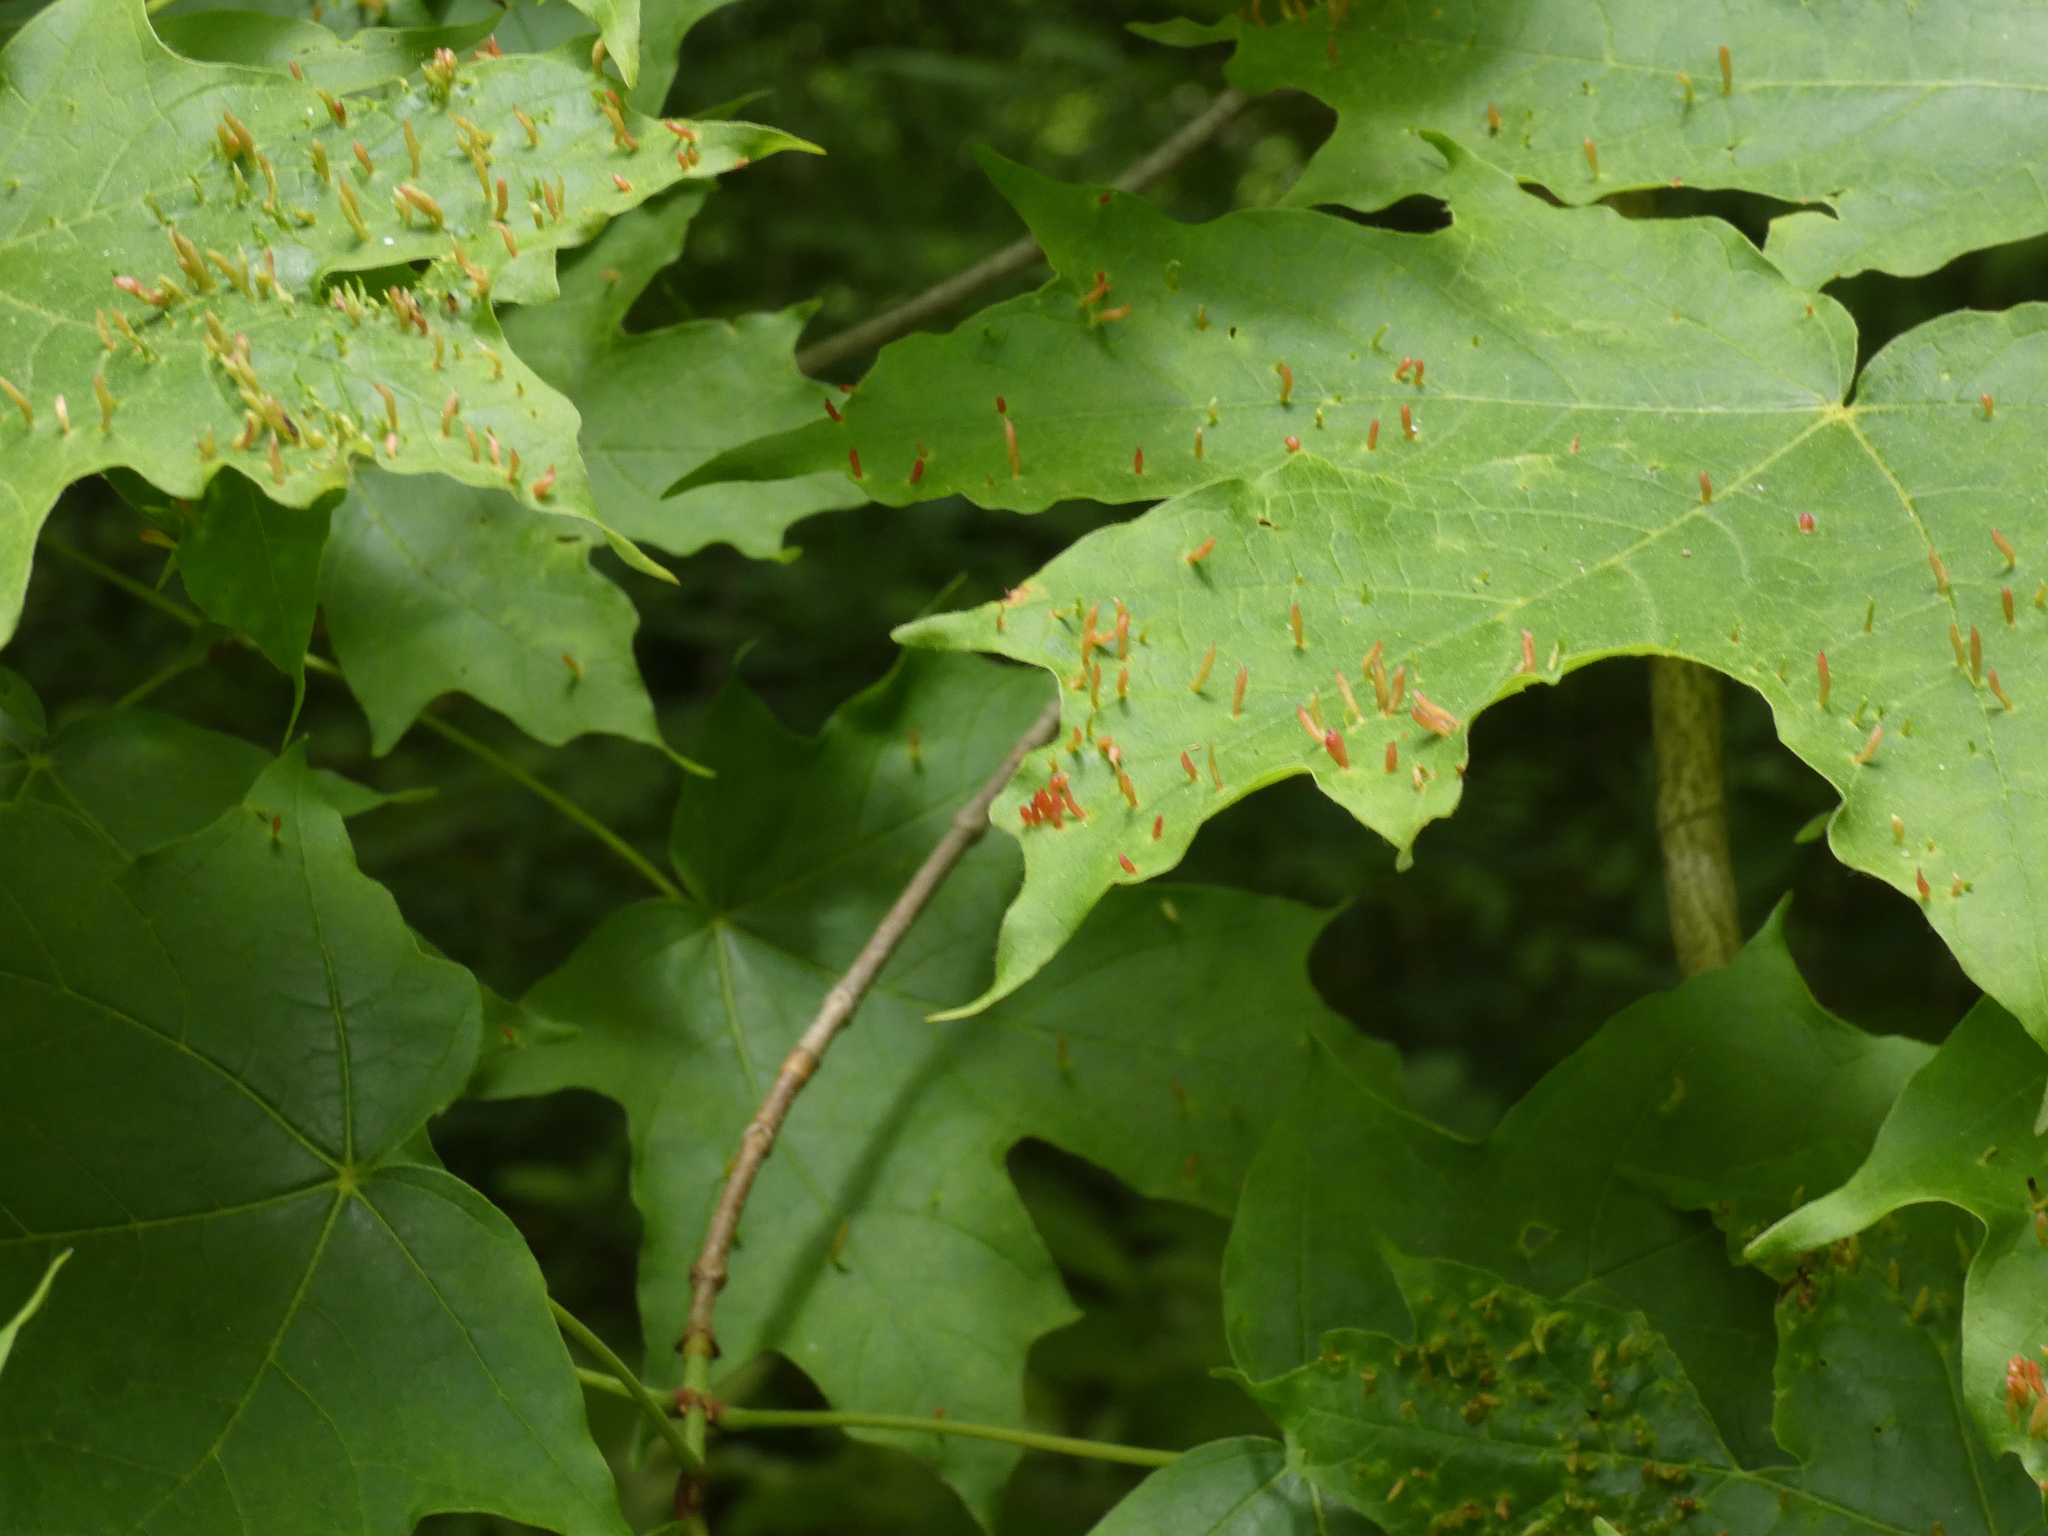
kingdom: Animalia
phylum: Arthropoda
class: Arachnida
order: Trombidiformes
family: Eriophyidae
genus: Vasates
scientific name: Vasates aceriscrumena
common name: Maple spindle gall mite
